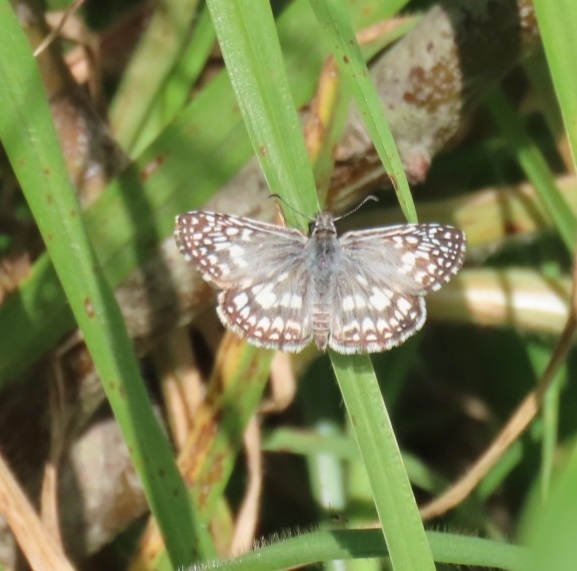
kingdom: Animalia
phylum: Arthropoda
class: Insecta
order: Lepidoptera
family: Hesperiidae
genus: Pyrgus
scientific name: Pyrgus oileus
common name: Tropical checkered-skipper
